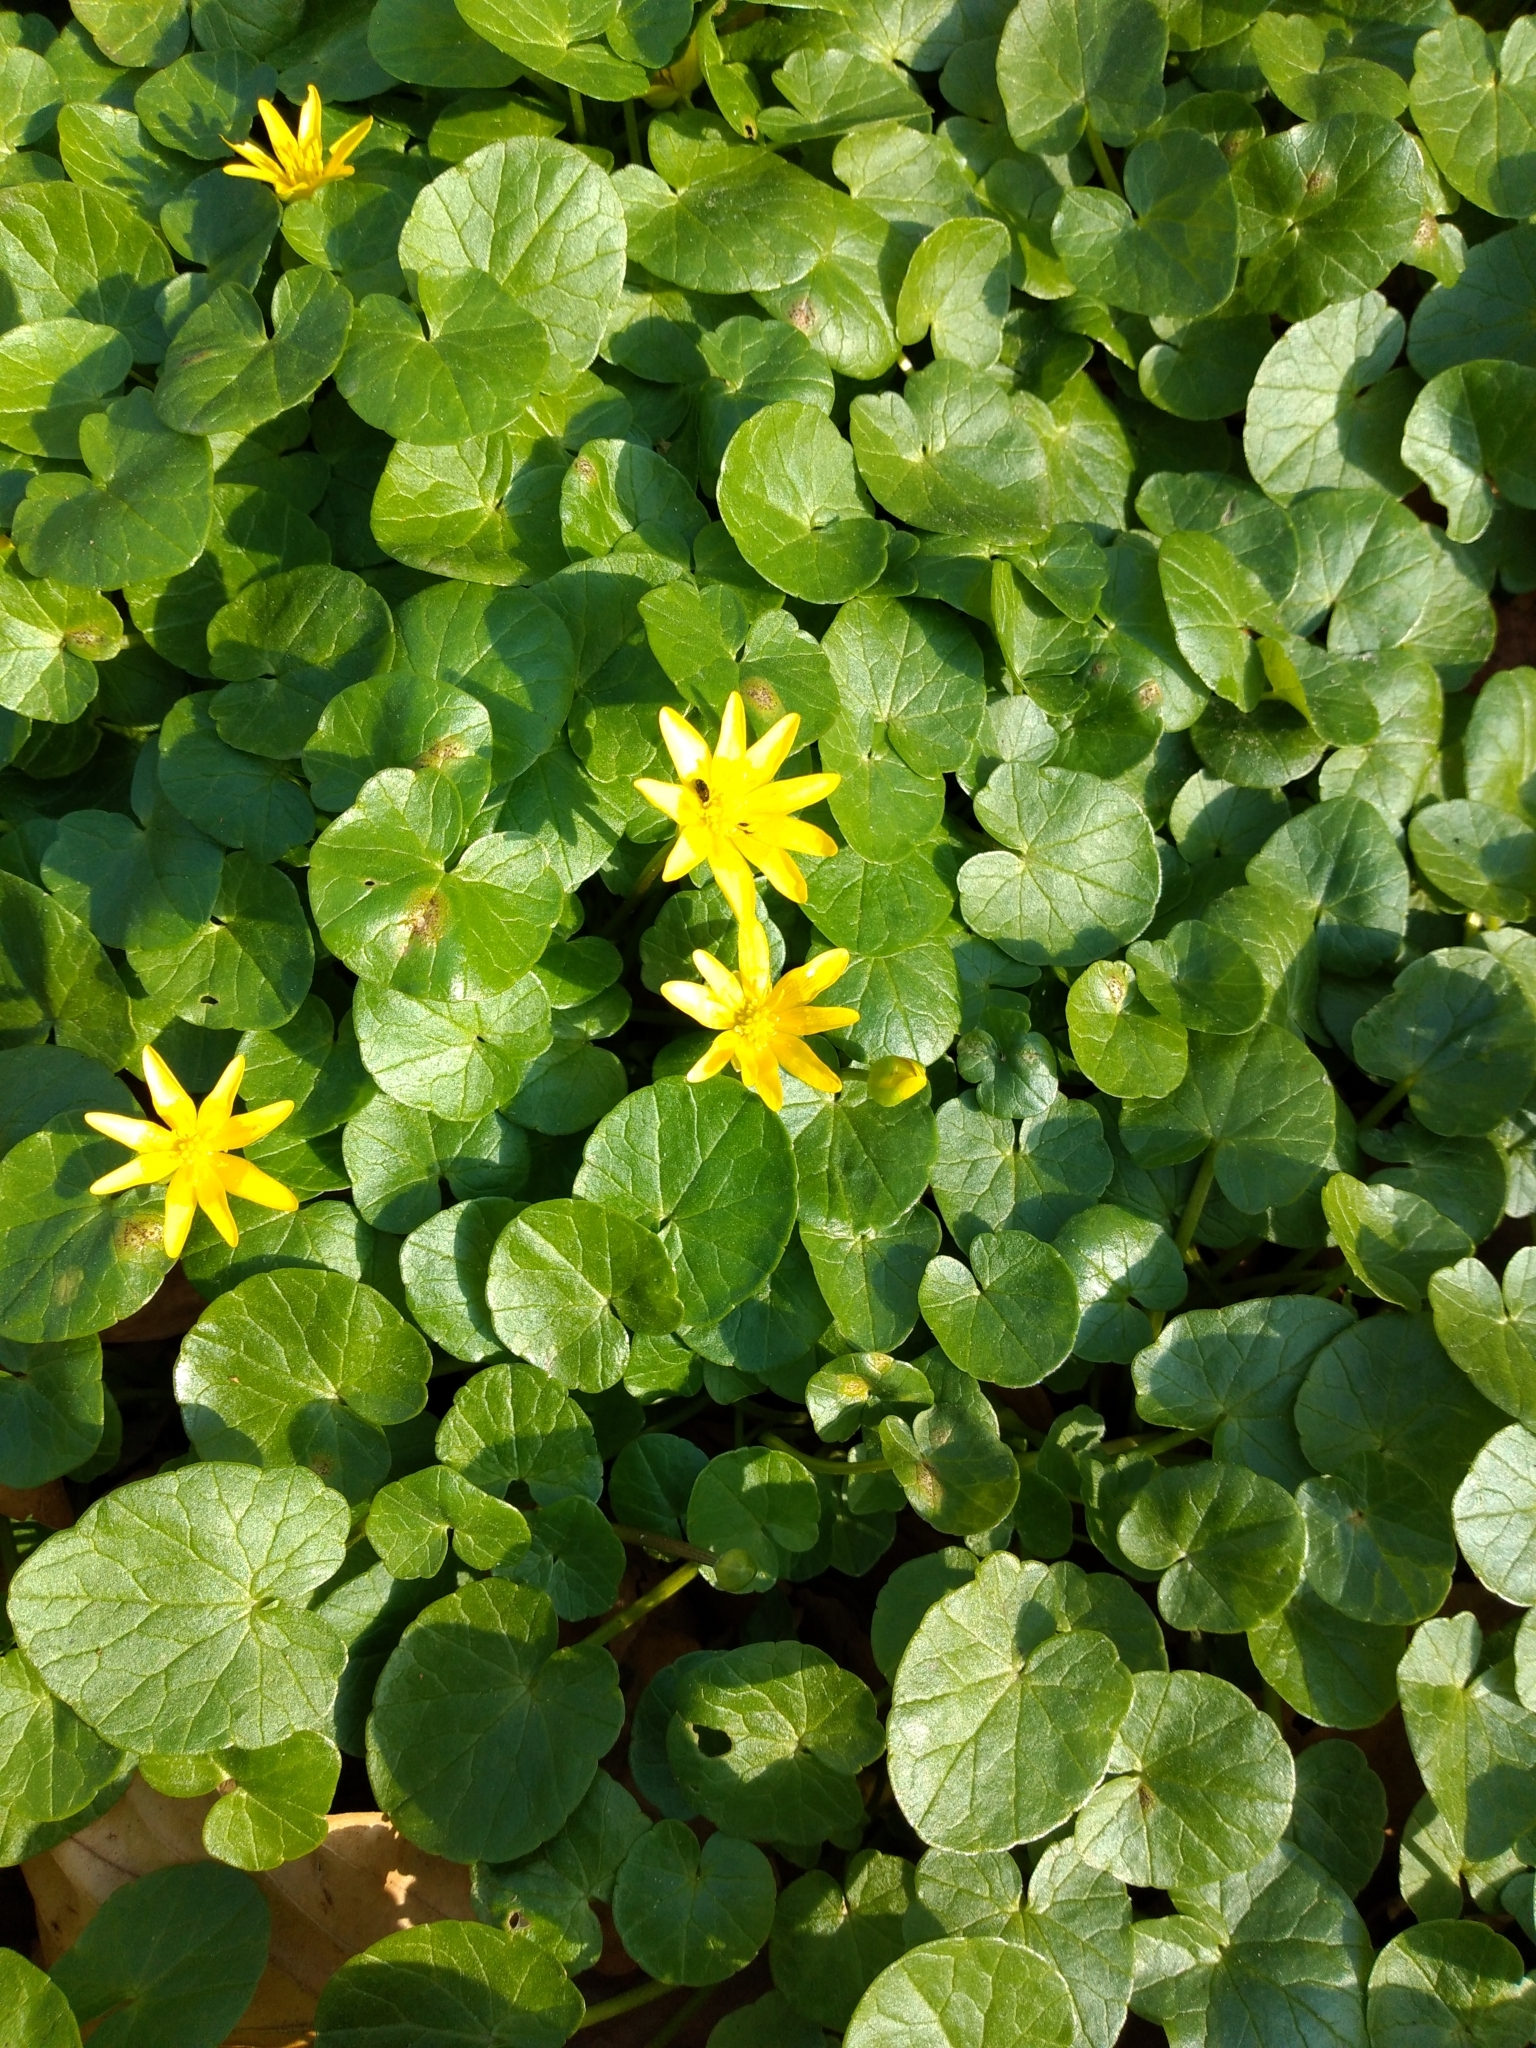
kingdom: Plantae
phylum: Tracheophyta
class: Magnoliopsida
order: Ranunculales
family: Ranunculaceae
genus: Ficaria
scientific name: Ficaria verna
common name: Lesser celandine
